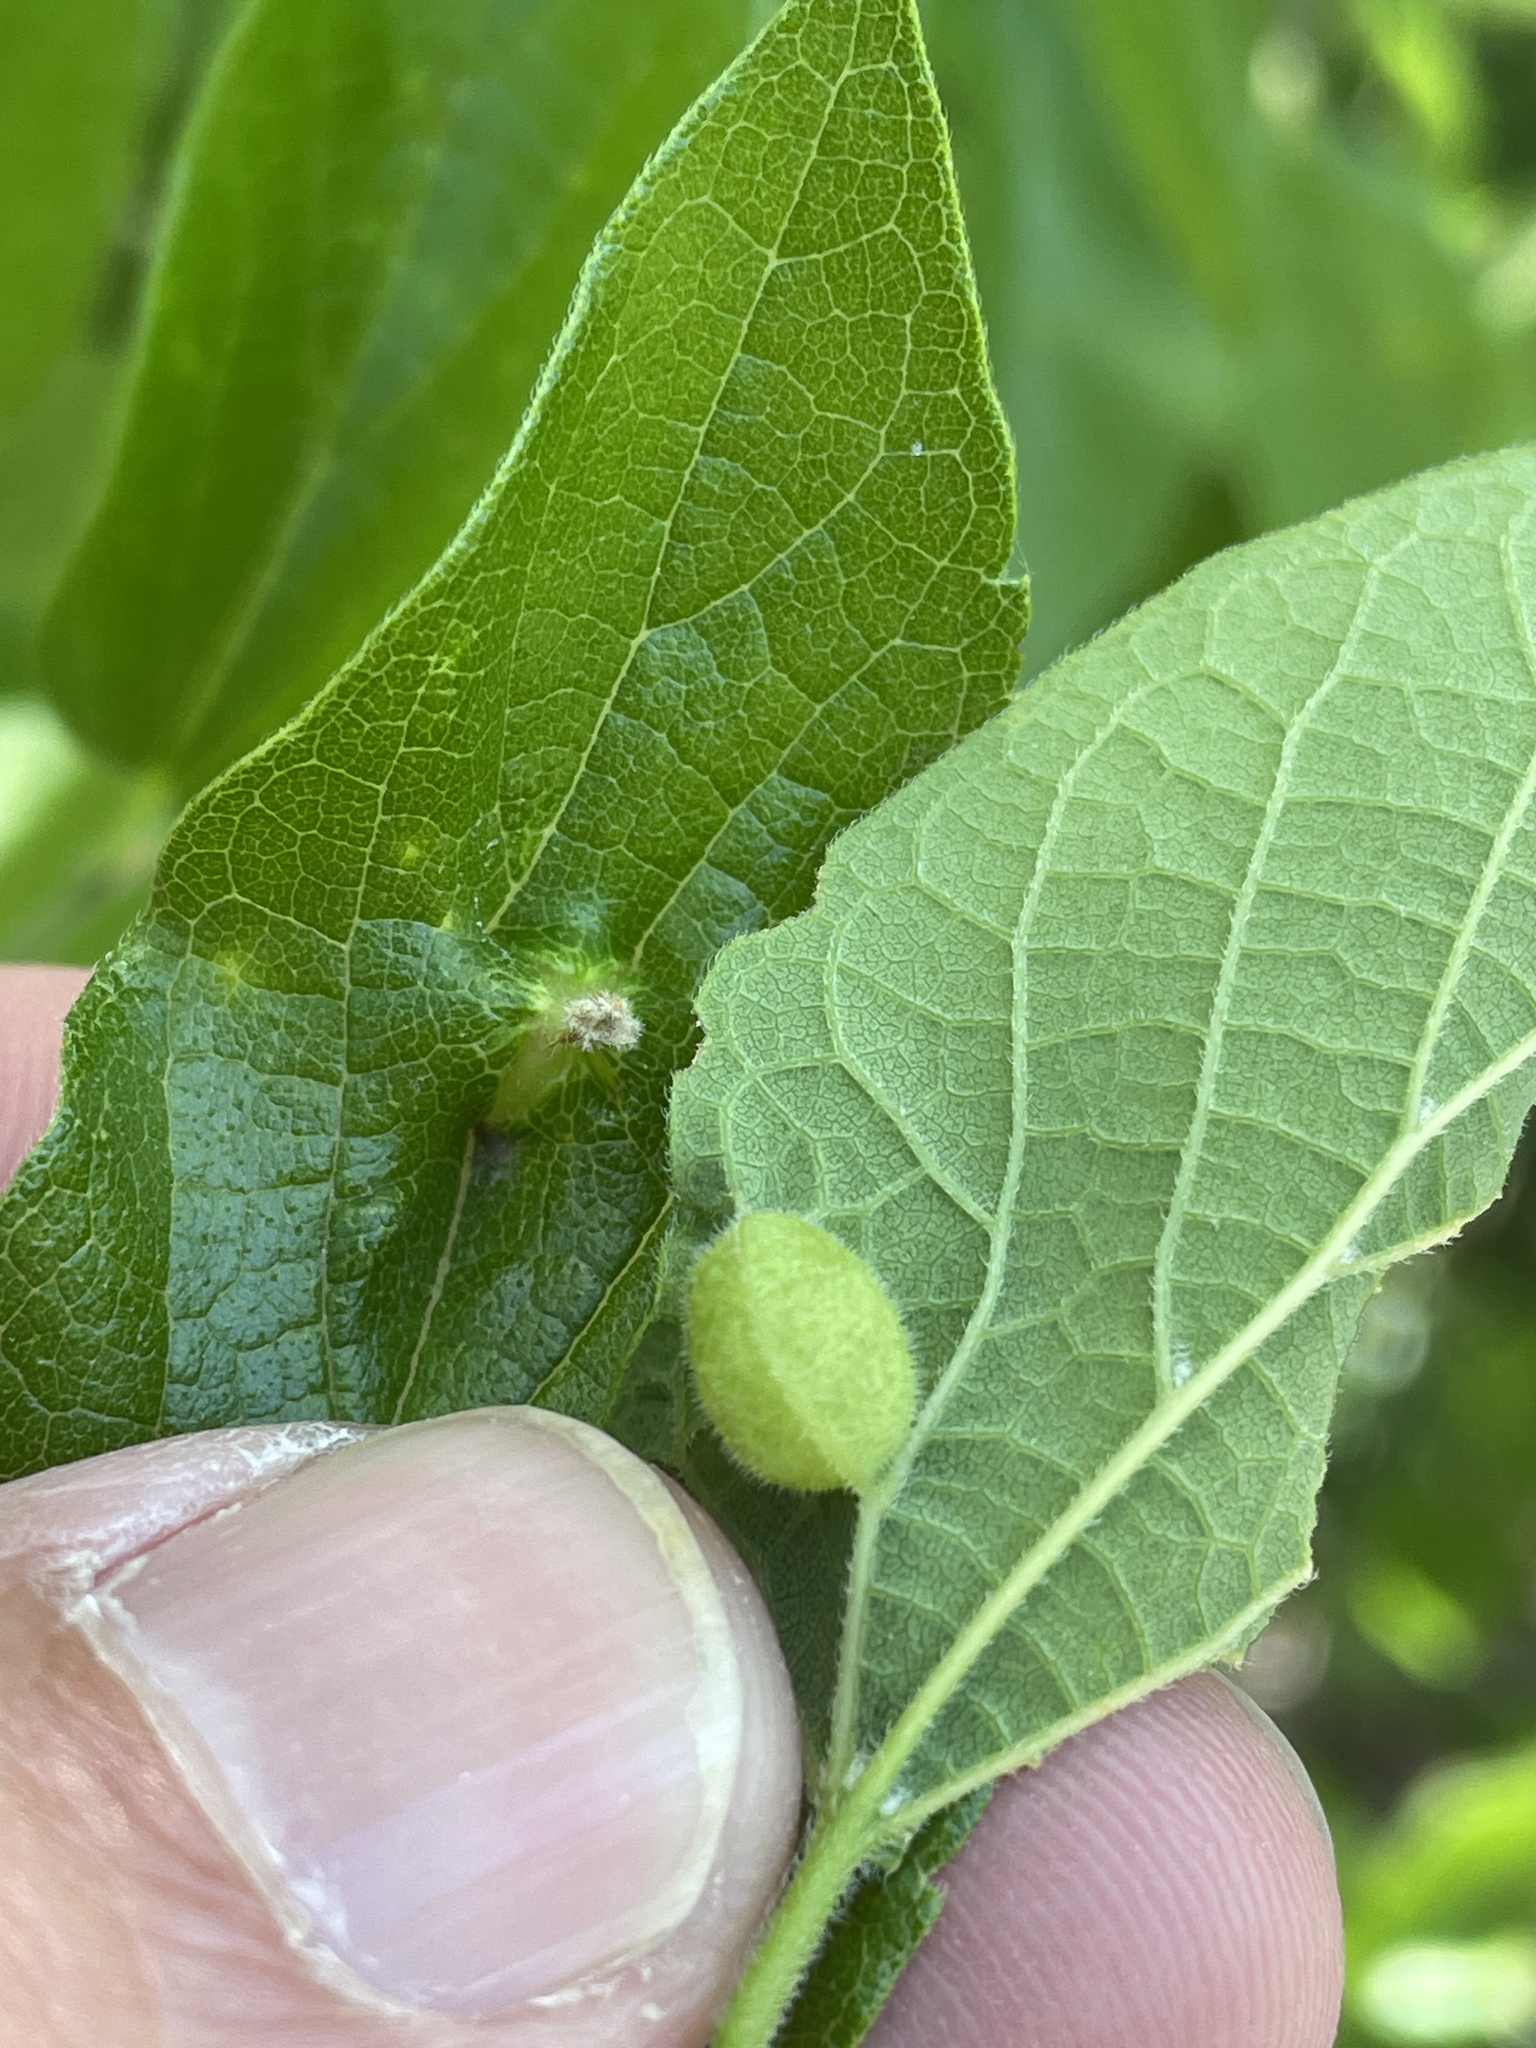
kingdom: Animalia
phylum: Arthropoda
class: Insecta
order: Diptera
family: Cecidomyiidae
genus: Peracecis
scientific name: Peracecis fugitiva
